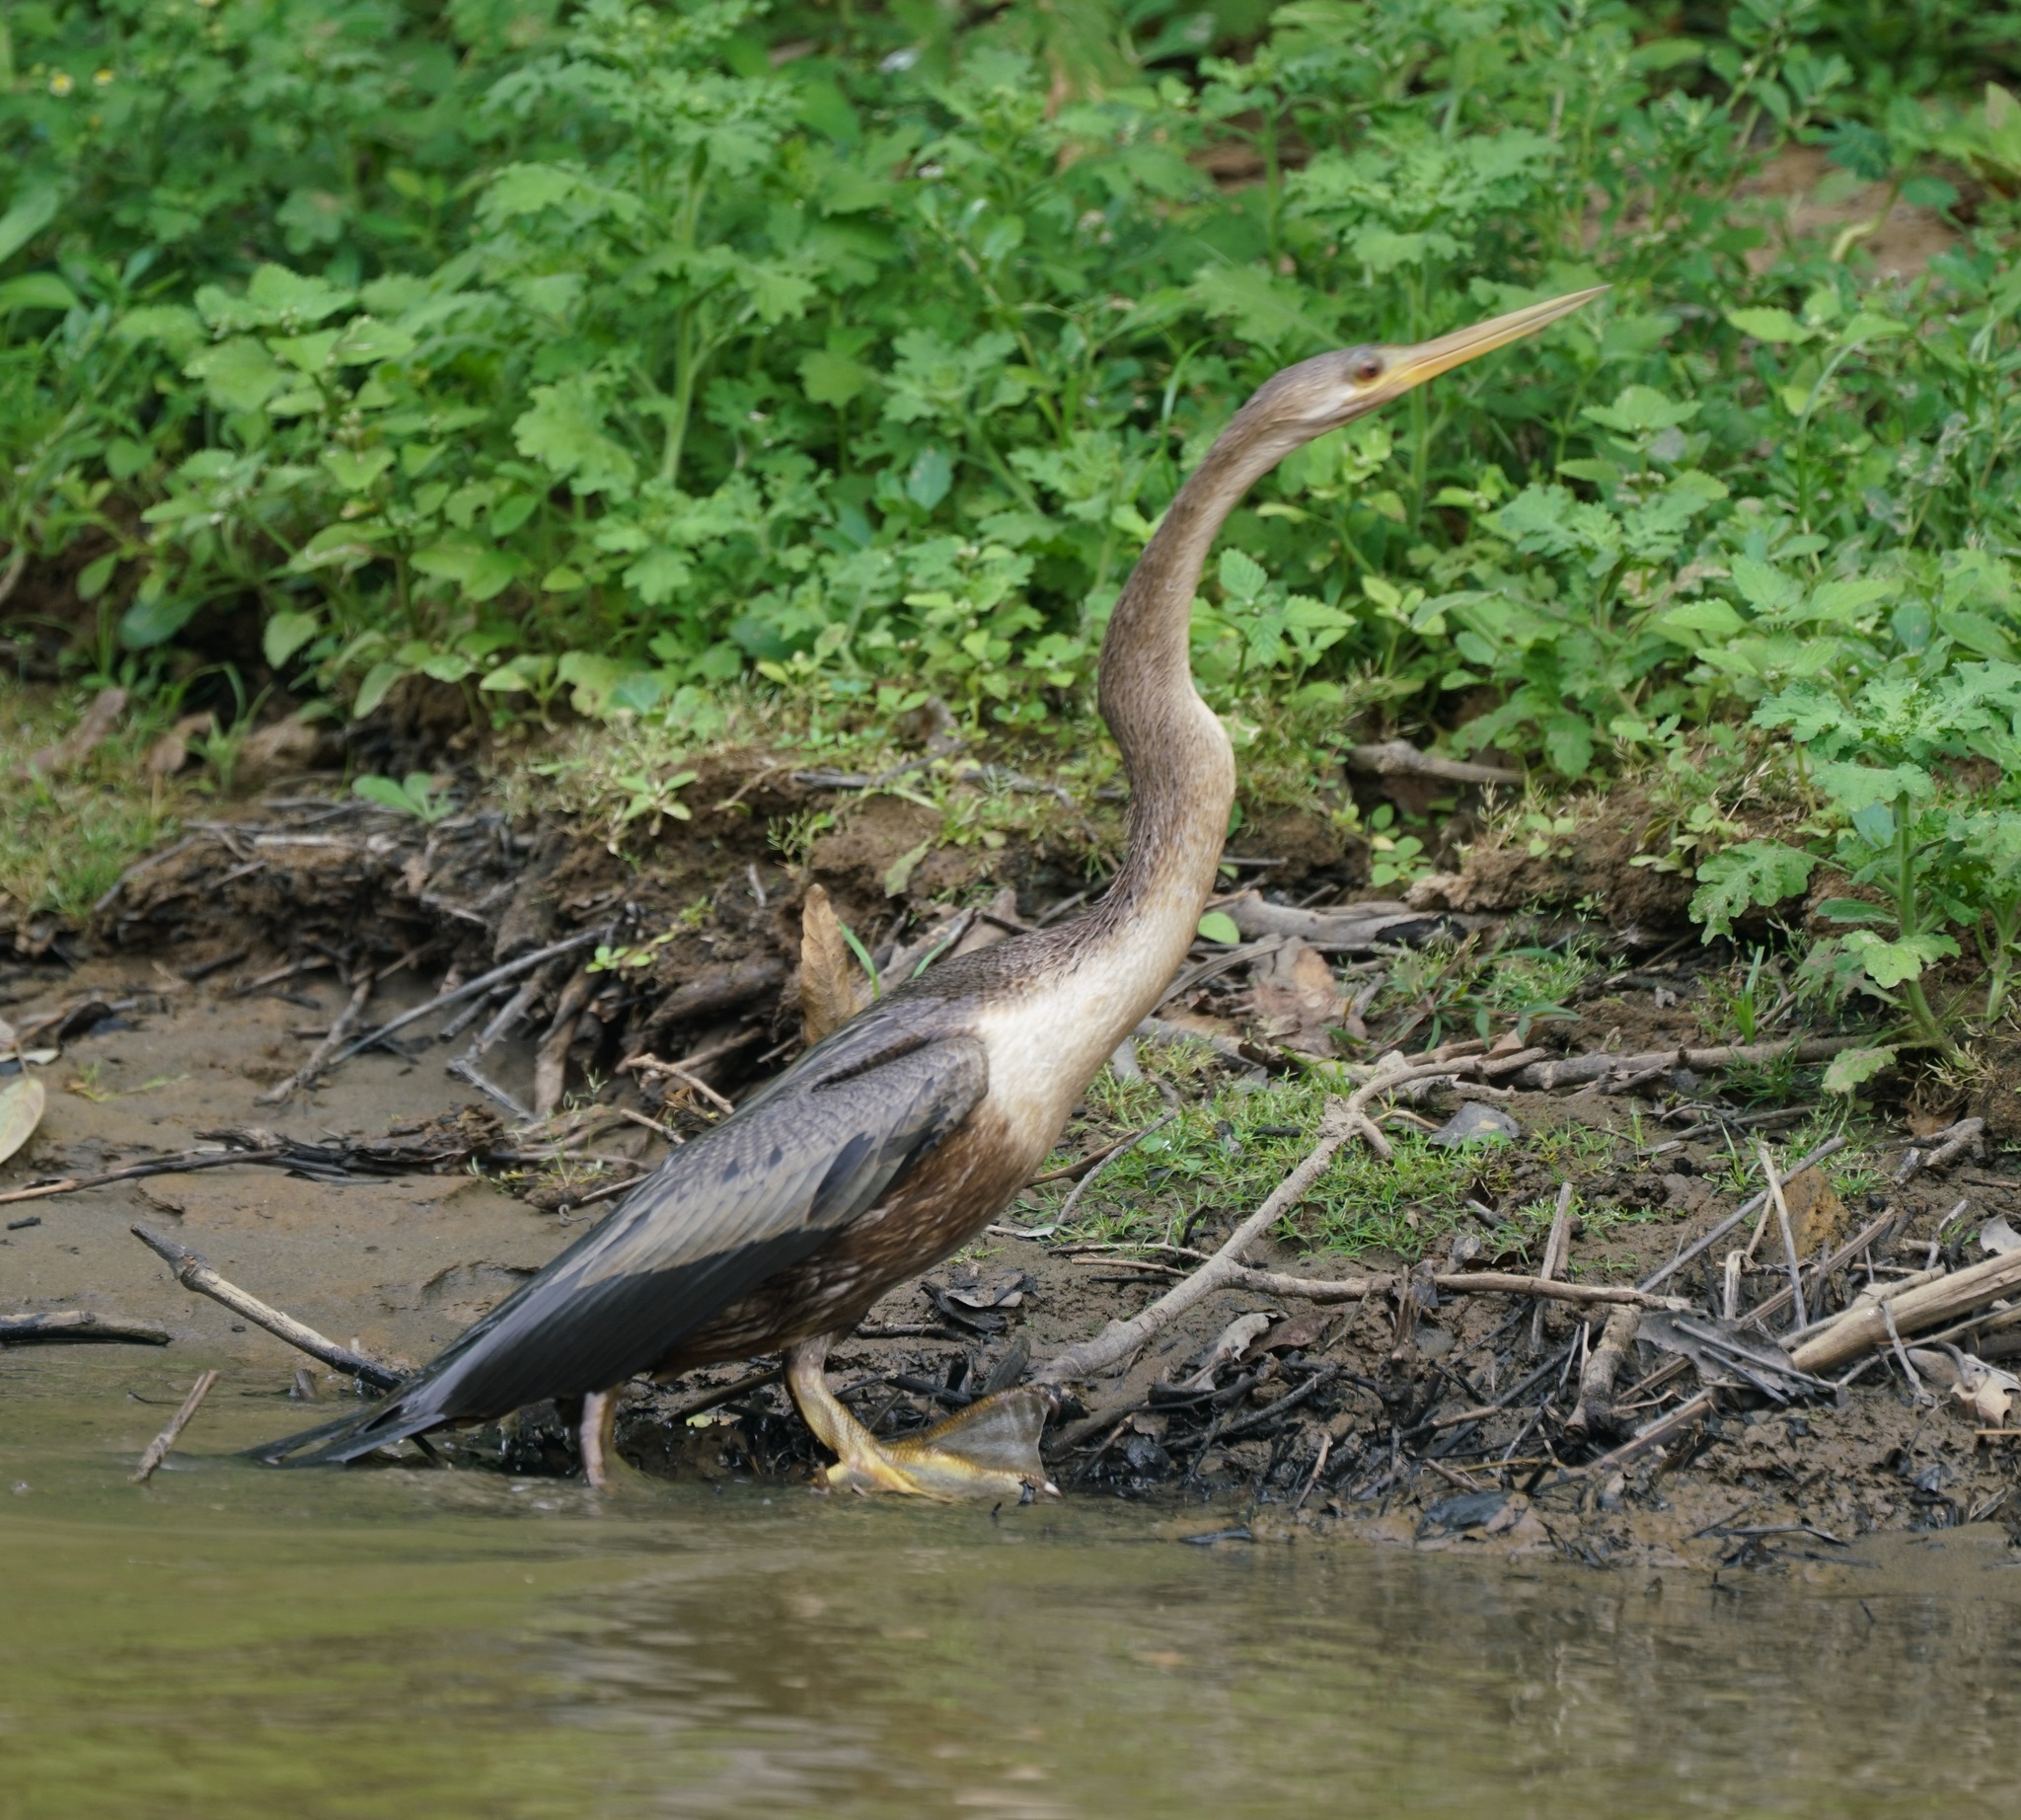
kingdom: Animalia
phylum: Chordata
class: Aves
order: Suliformes
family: Anhingidae
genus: Anhinga
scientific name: Anhinga anhinga
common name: Anhinga
